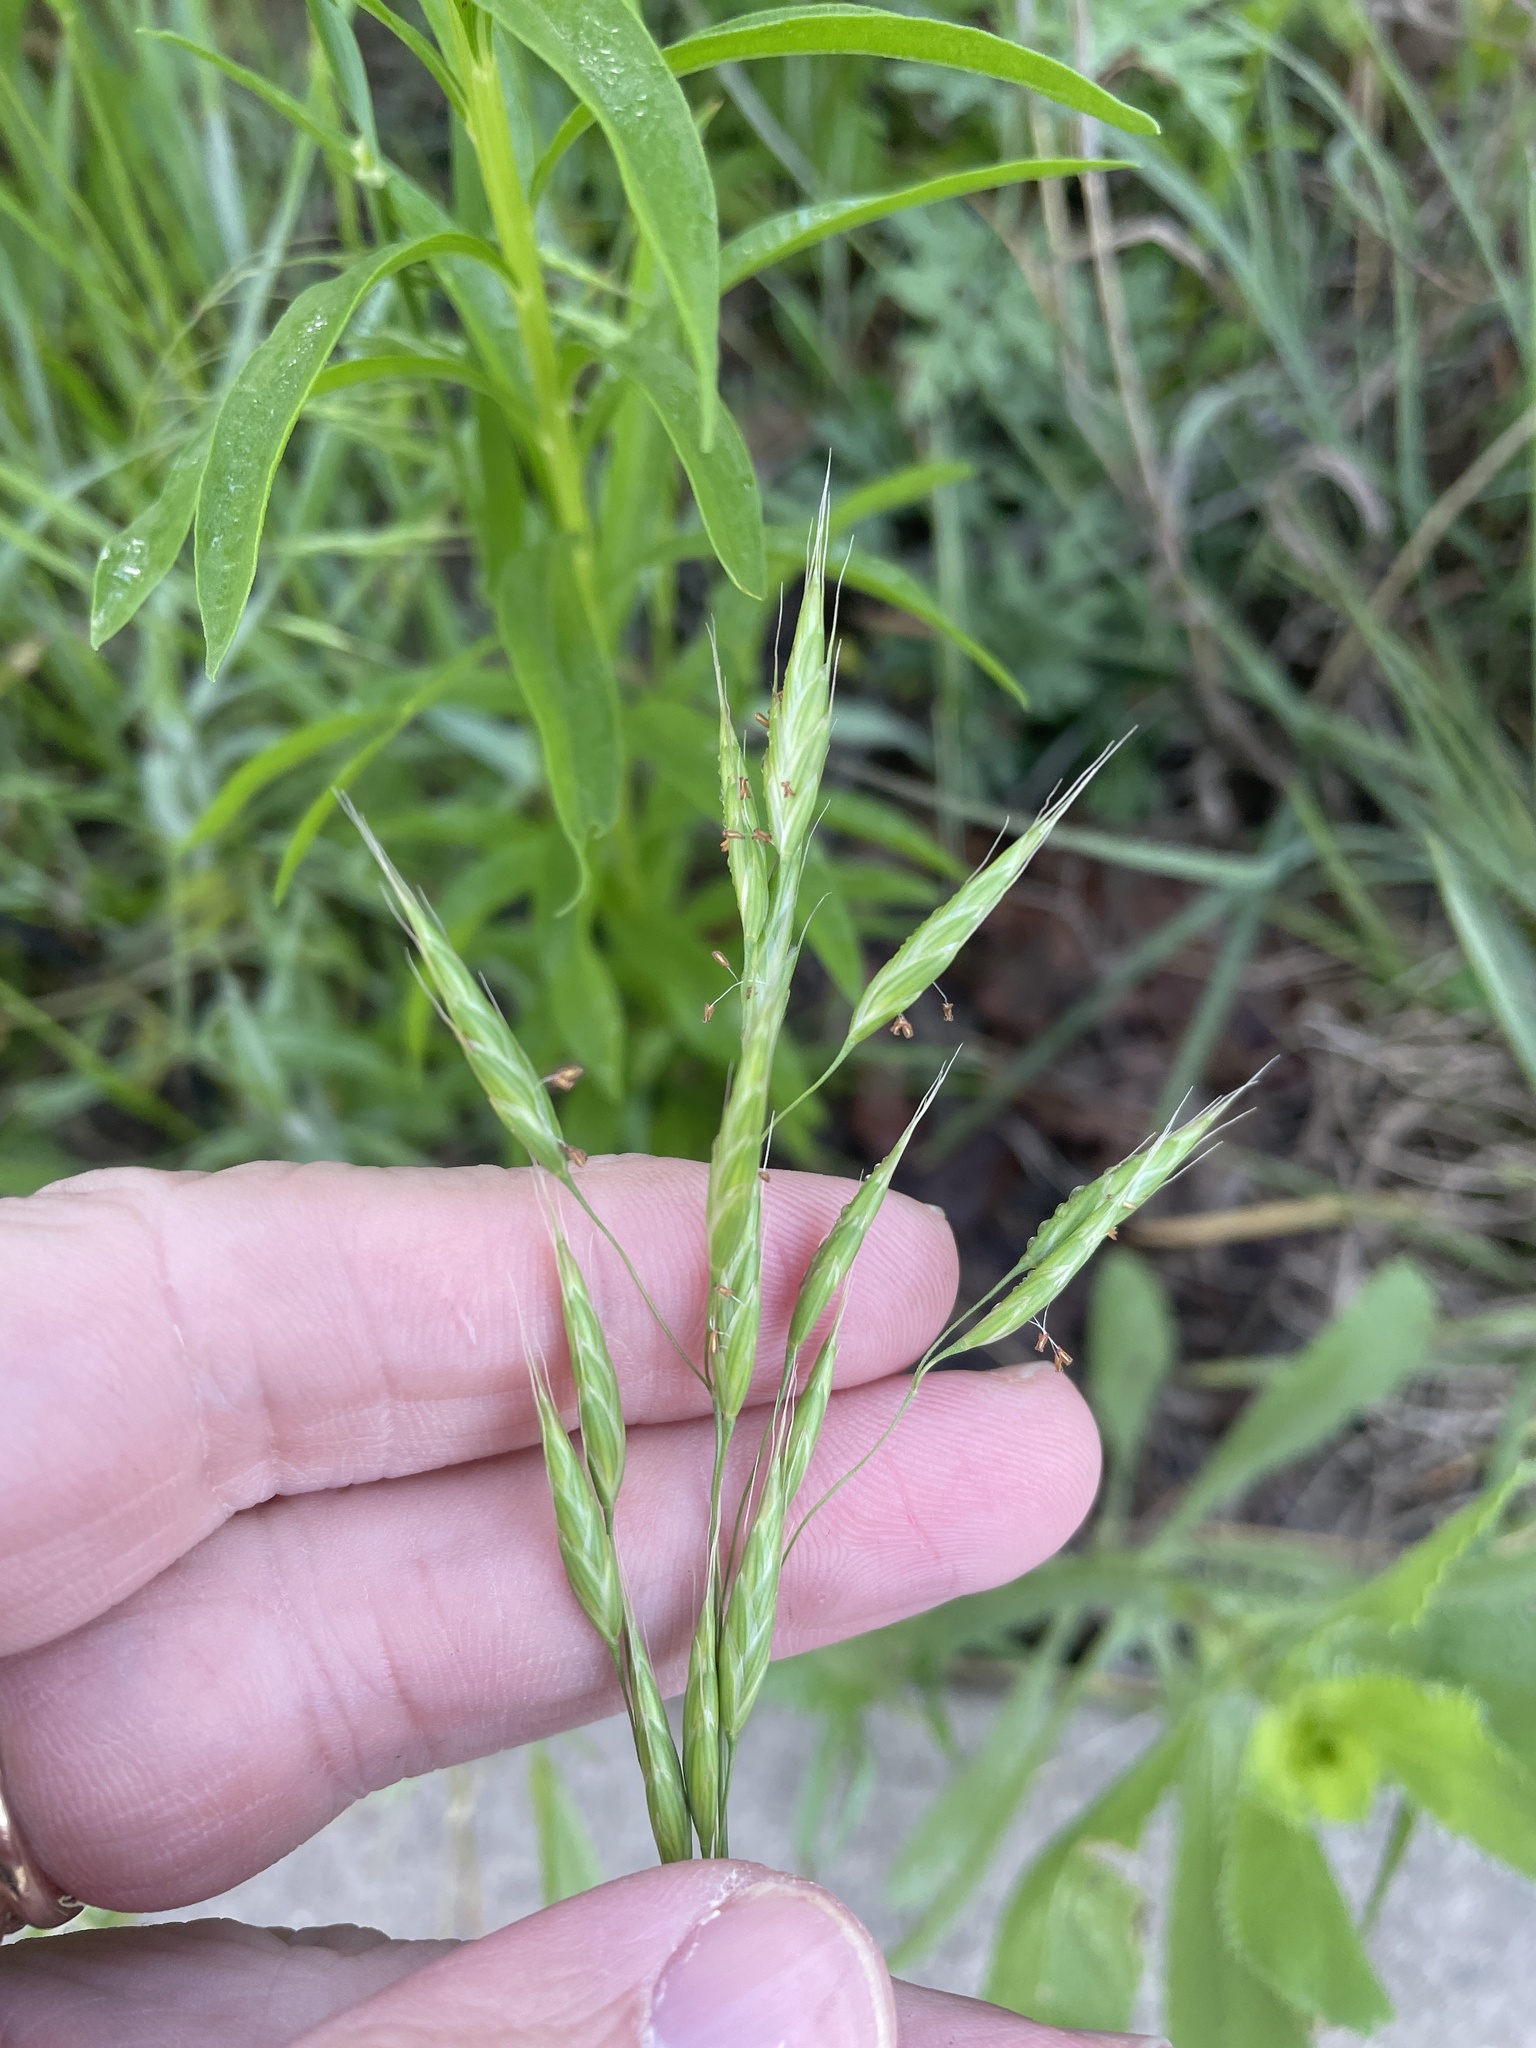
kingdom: Plantae
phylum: Tracheophyta
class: Liliopsida
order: Poales
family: Poaceae
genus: Bromus
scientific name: Bromus japonicus
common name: Japanese brome
